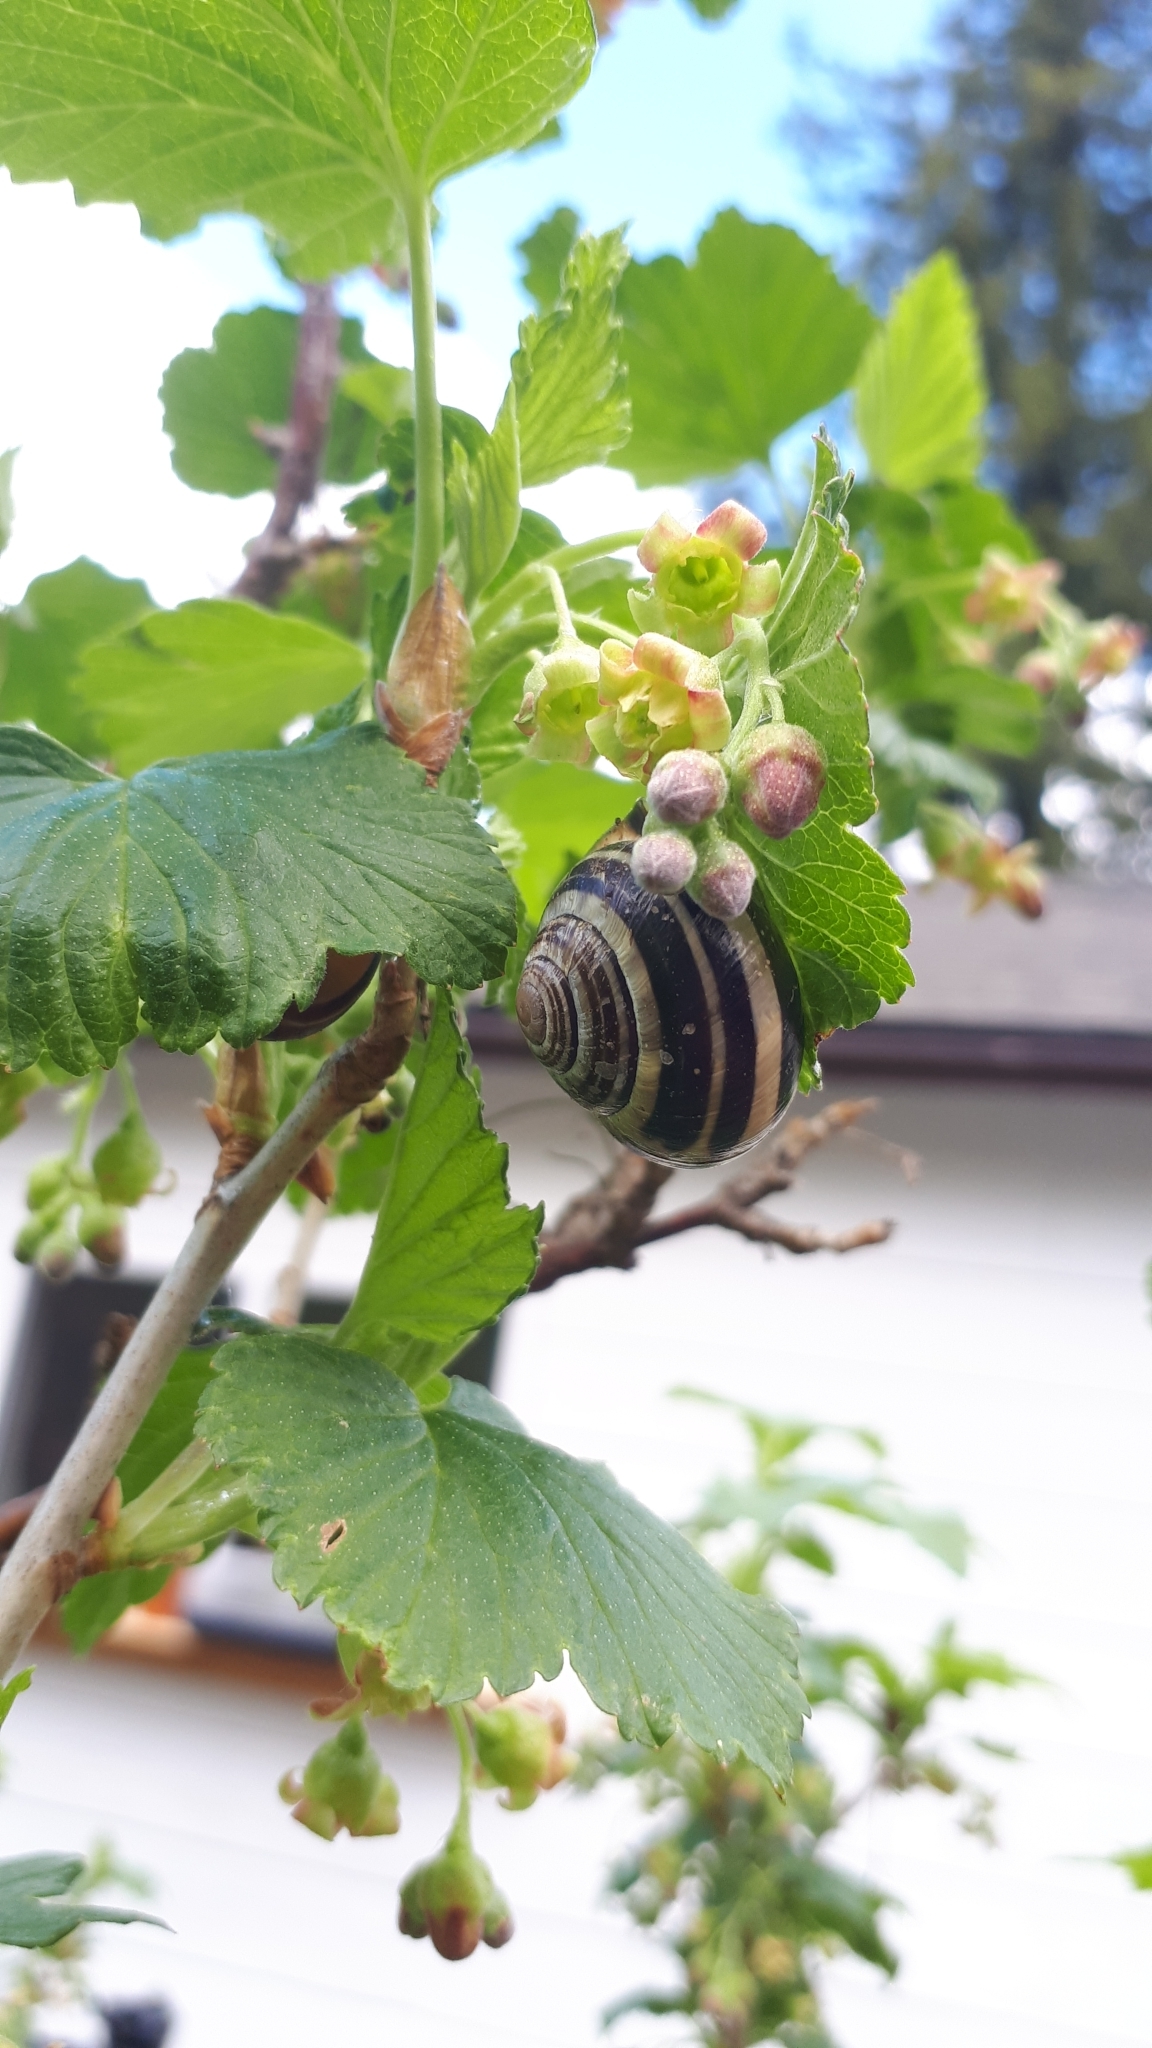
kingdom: Animalia
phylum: Mollusca
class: Gastropoda
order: Stylommatophora
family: Helicidae
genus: Cepaea
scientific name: Cepaea nemoralis
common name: Grovesnail
